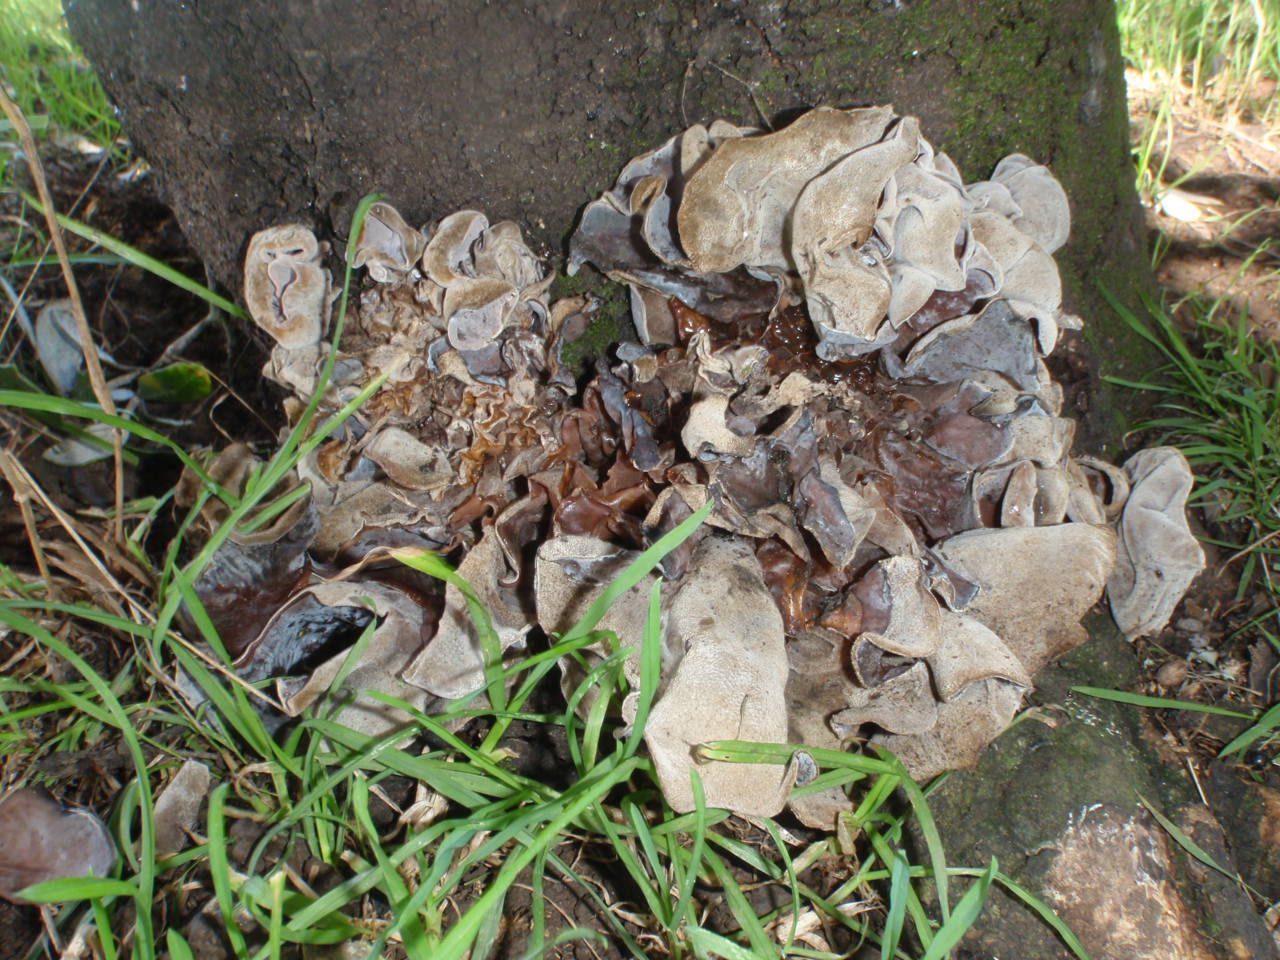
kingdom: Fungi
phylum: Basidiomycota
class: Agaricomycetes
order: Auriculariales
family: Auriculariaceae
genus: Auricularia
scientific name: Auricularia cornea
